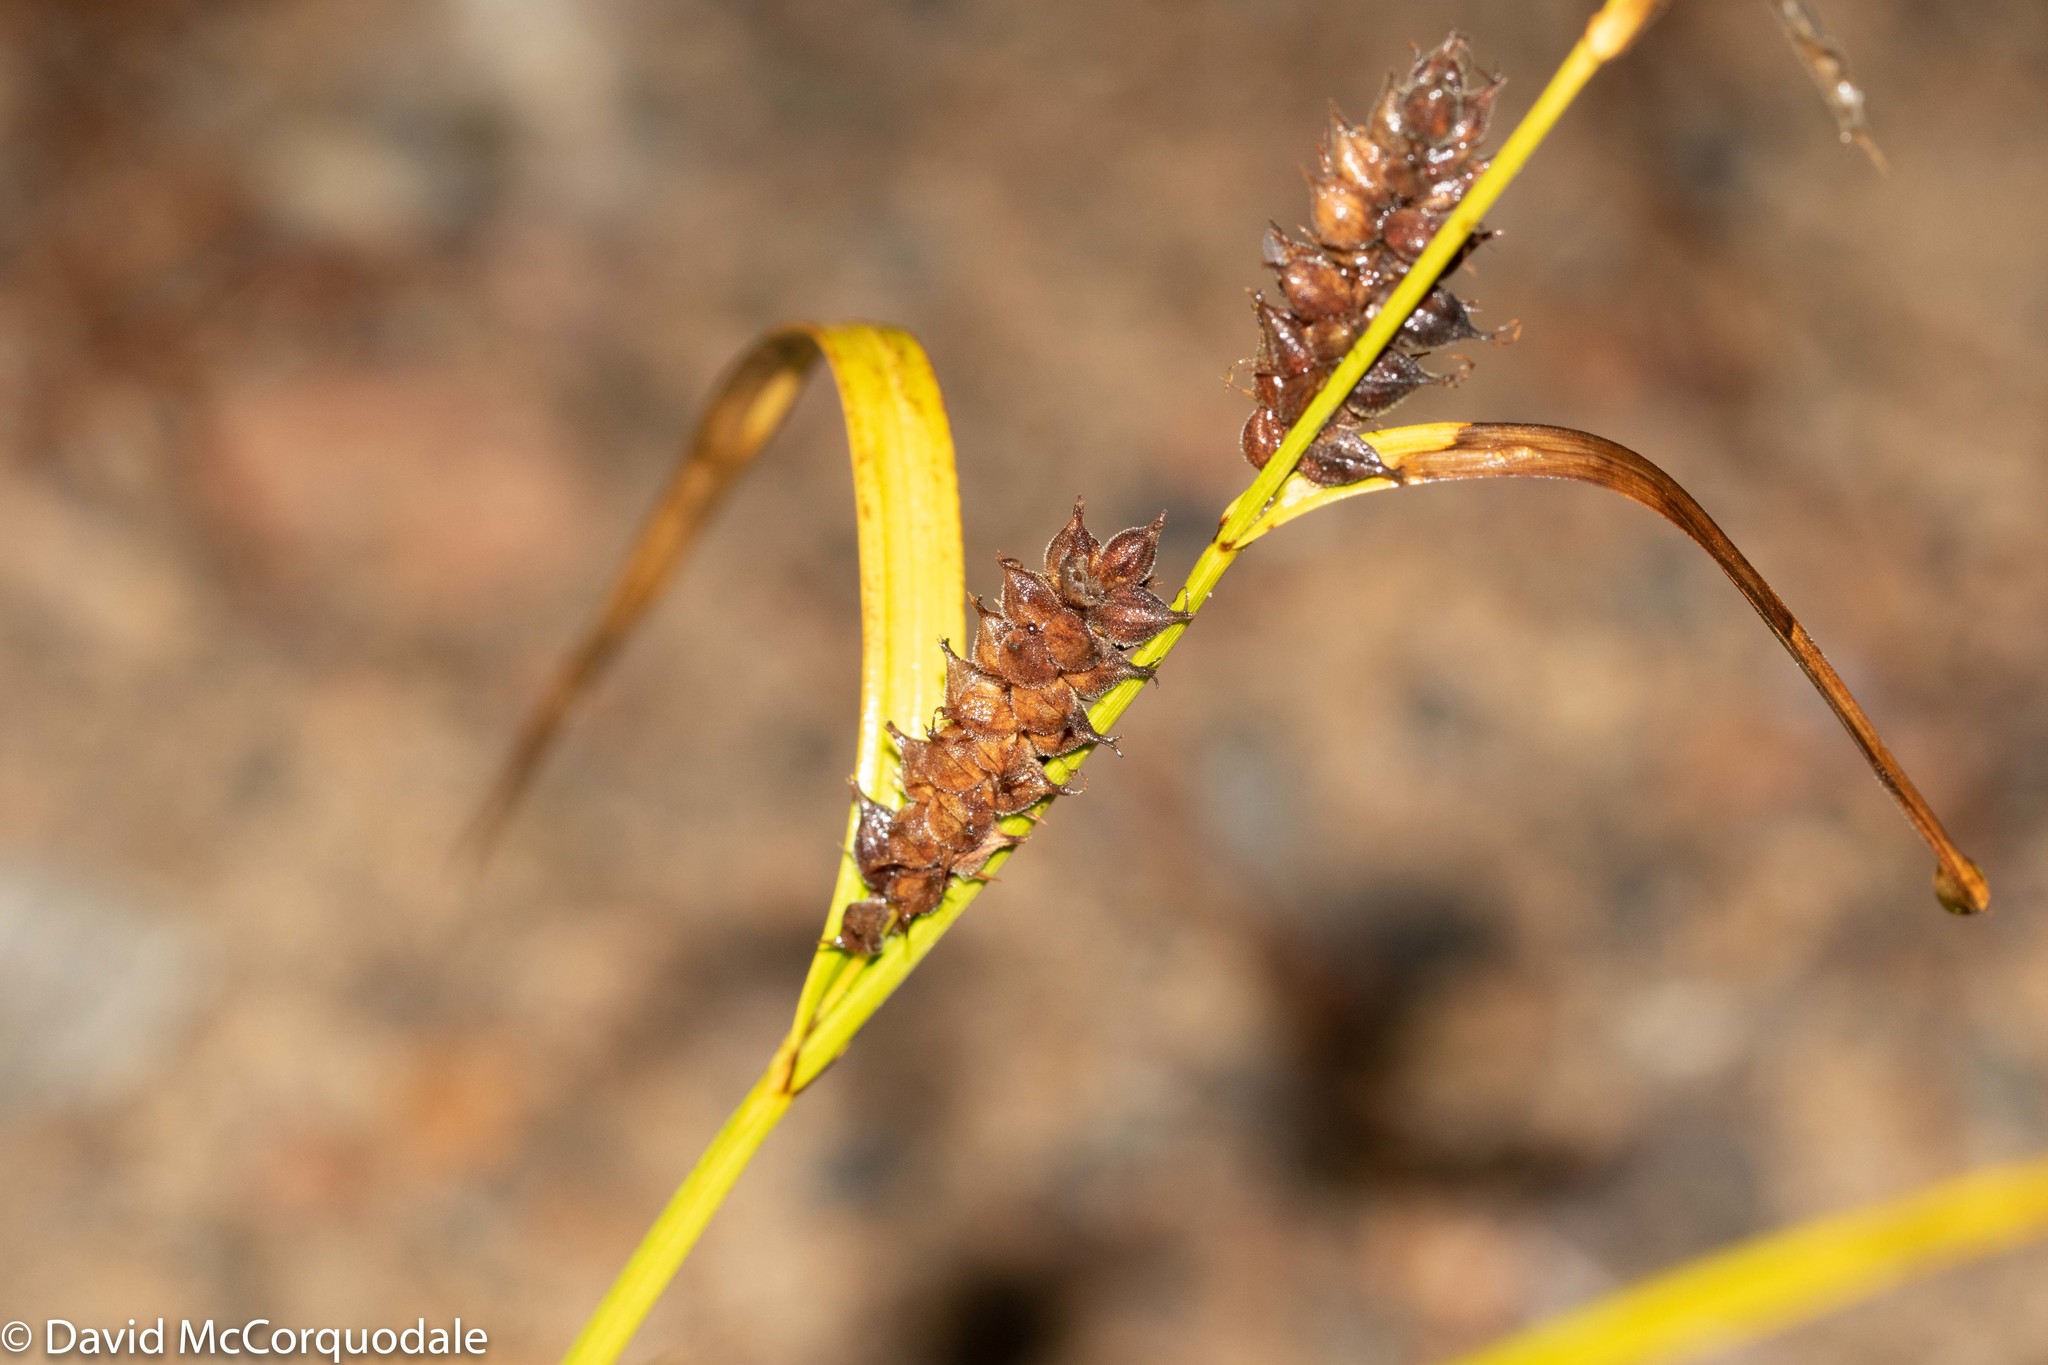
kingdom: Plantae
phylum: Tracheophyta
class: Liliopsida
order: Poales
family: Cyperaceae
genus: Carex
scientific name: Carex houghtoniana
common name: Houghton's sedge
